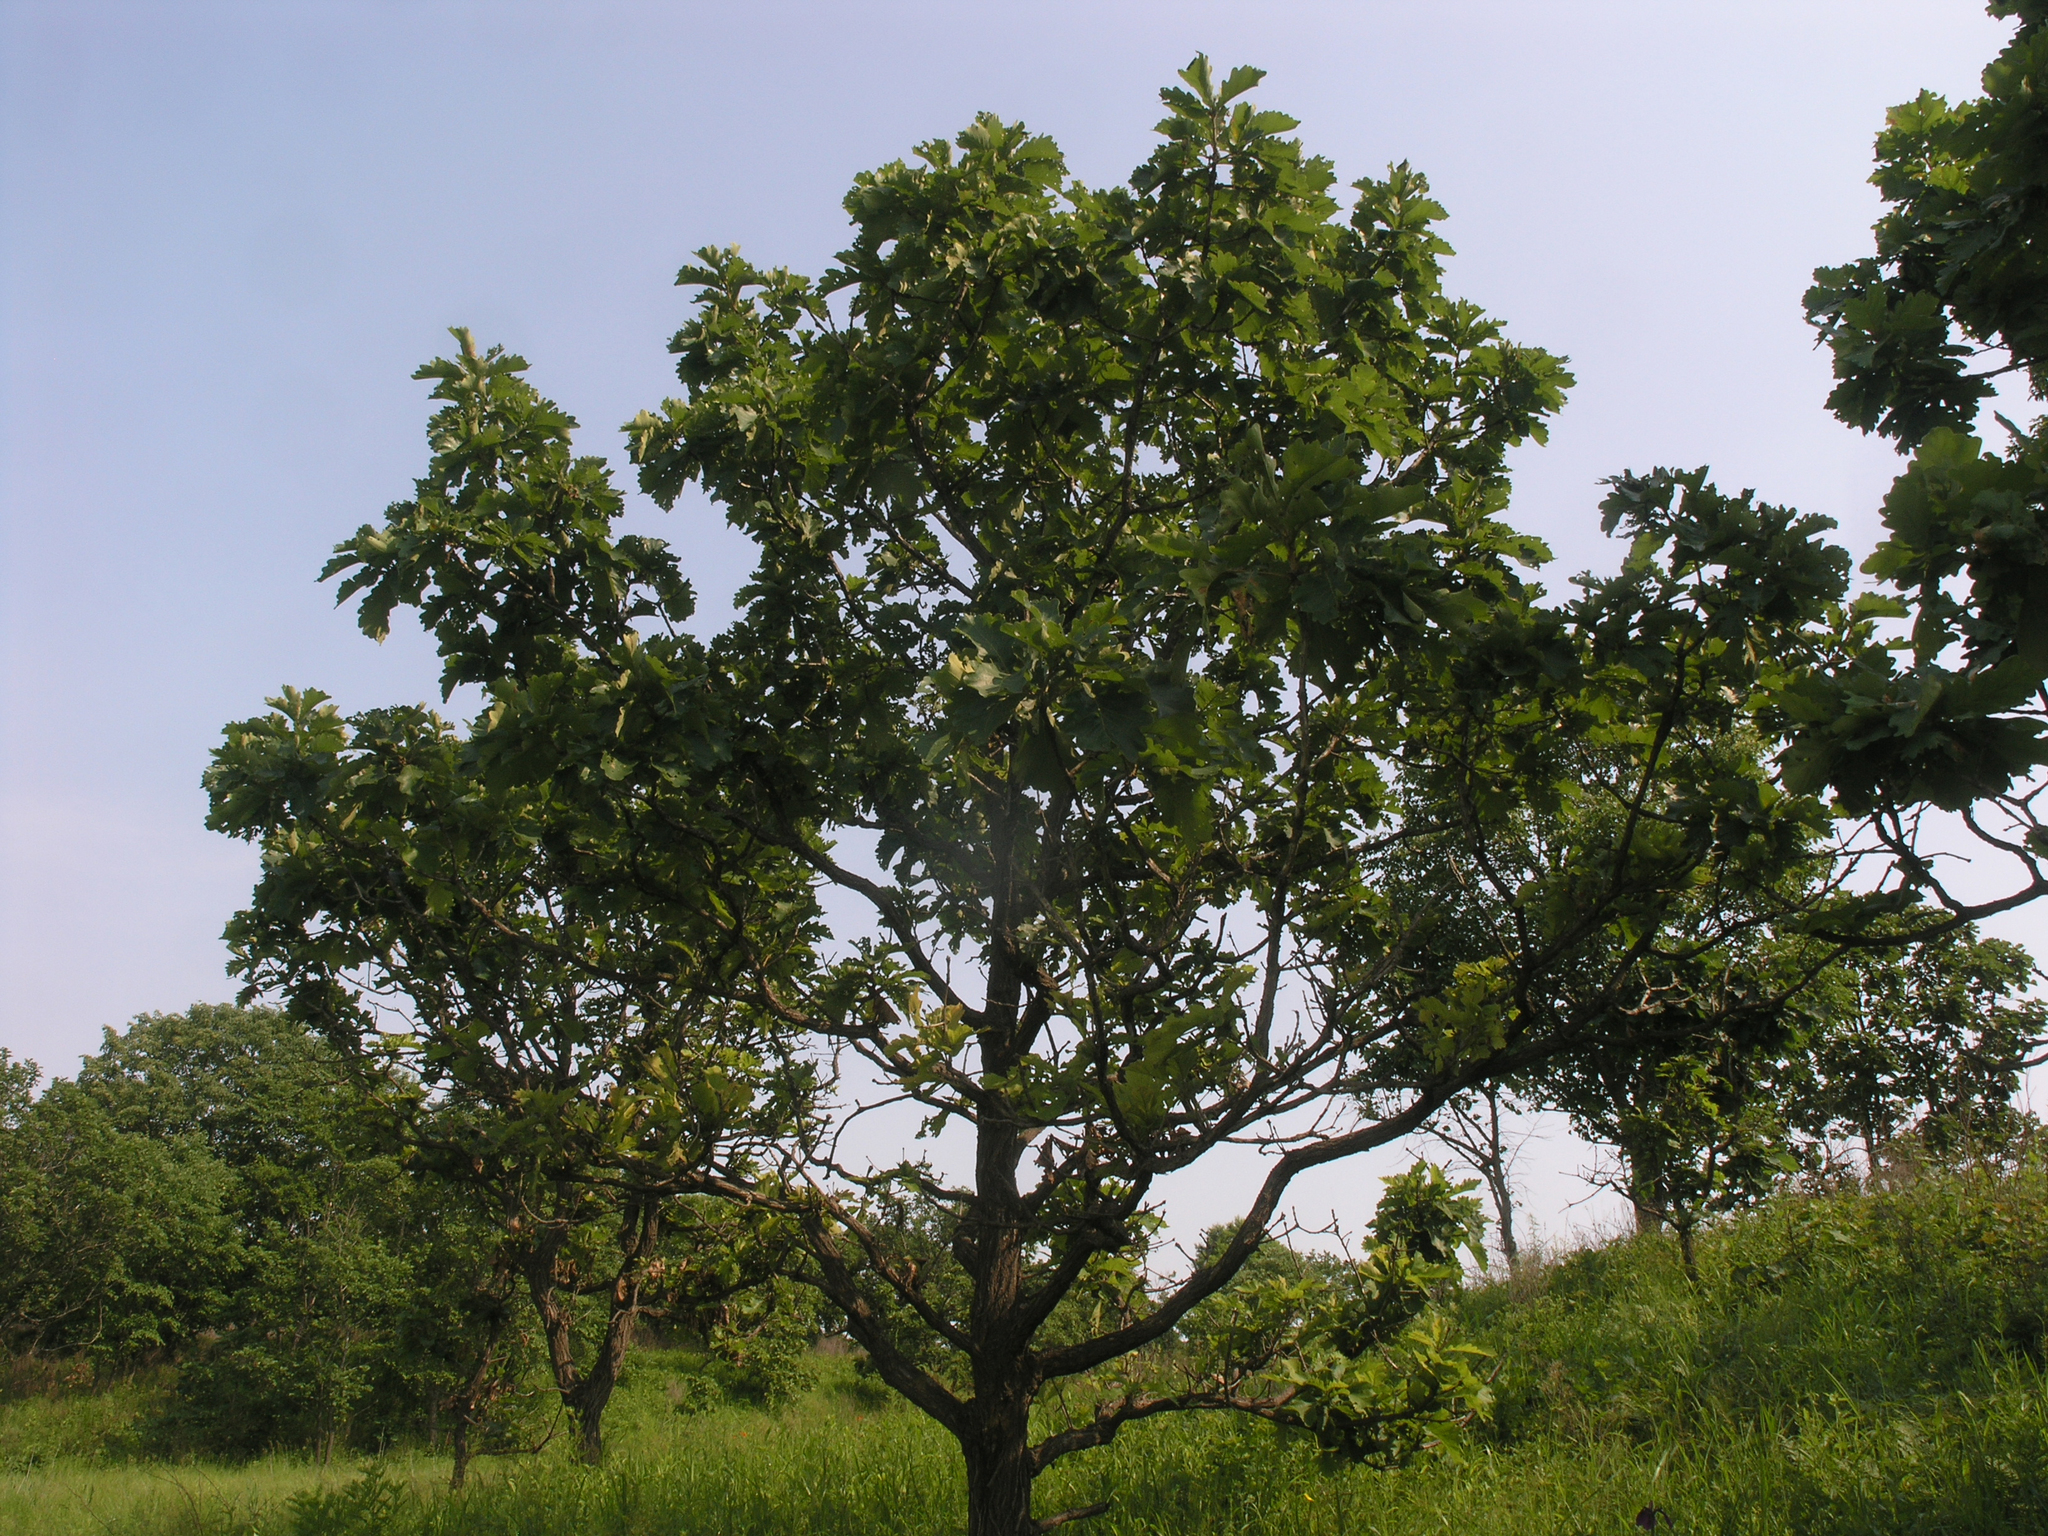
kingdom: Plantae
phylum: Tracheophyta
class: Magnoliopsida
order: Fagales
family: Fagaceae
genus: Quercus
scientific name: Quercus dentata
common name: Daimyo oak
